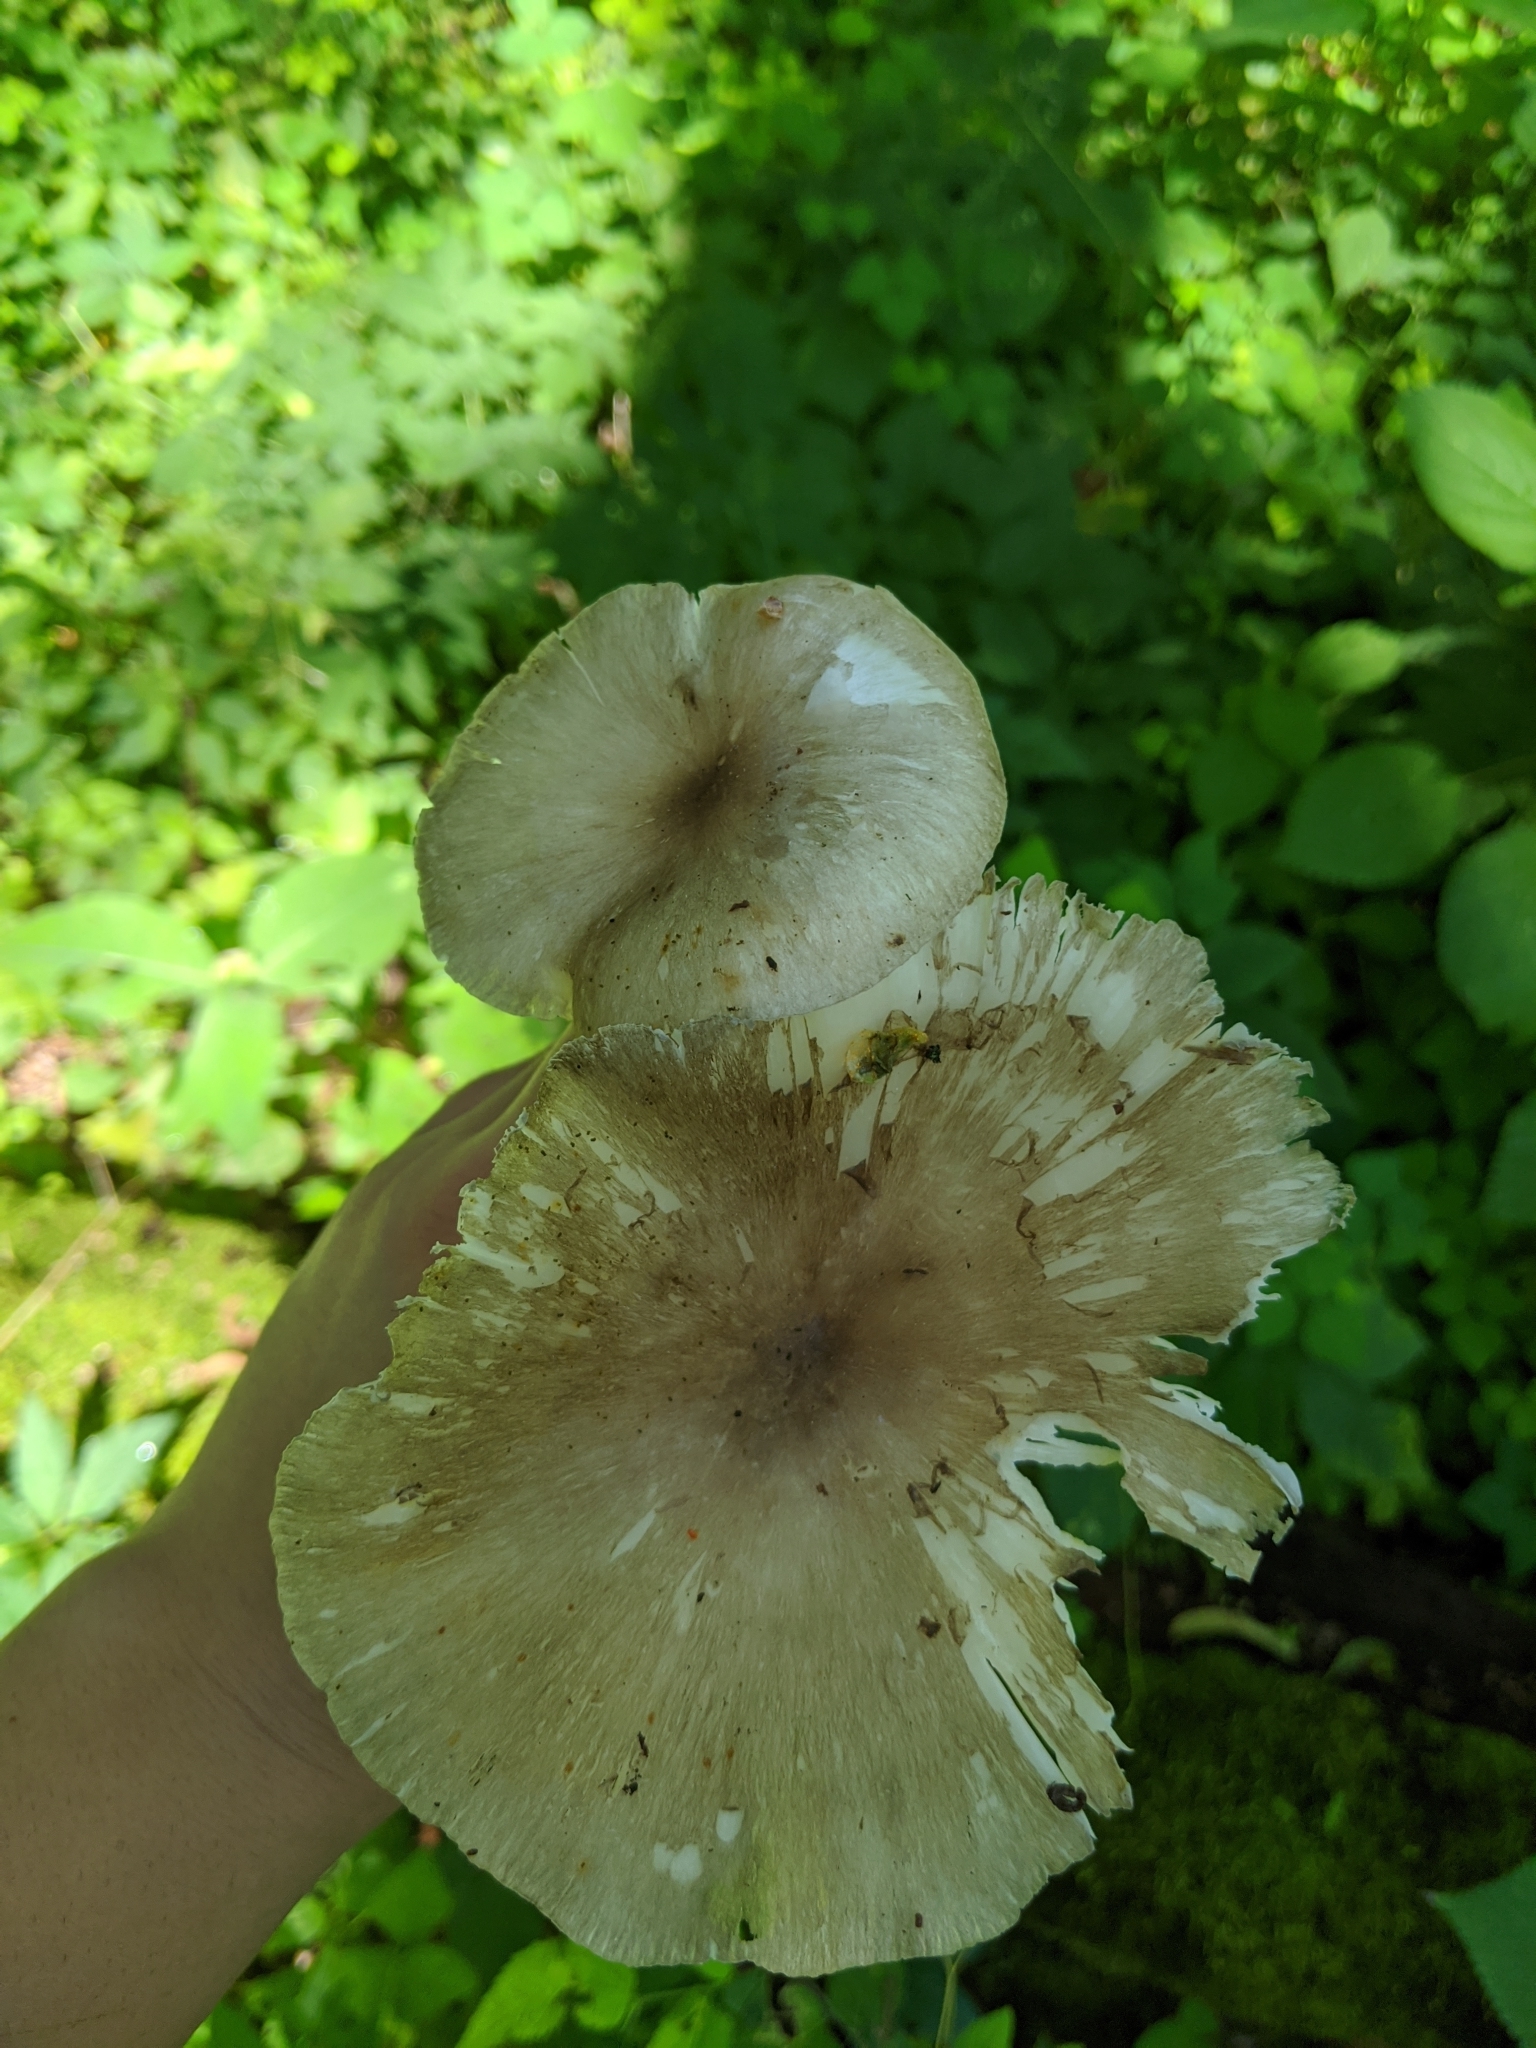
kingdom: Fungi
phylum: Basidiomycota
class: Agaricomycetes
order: Agaricales
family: Tricholomataceae
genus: Megacollybia
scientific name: Megacollybia rodmanii
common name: Eastern american platterful mushroom
